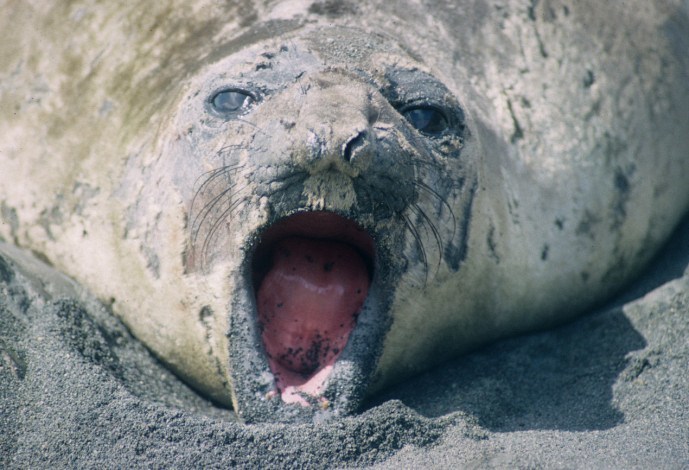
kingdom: Animalia
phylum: Chordata
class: Mammalia
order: Carnivora
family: Phocidae
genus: Mirounga
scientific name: Mirounga leonina
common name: Southern elephant seal
